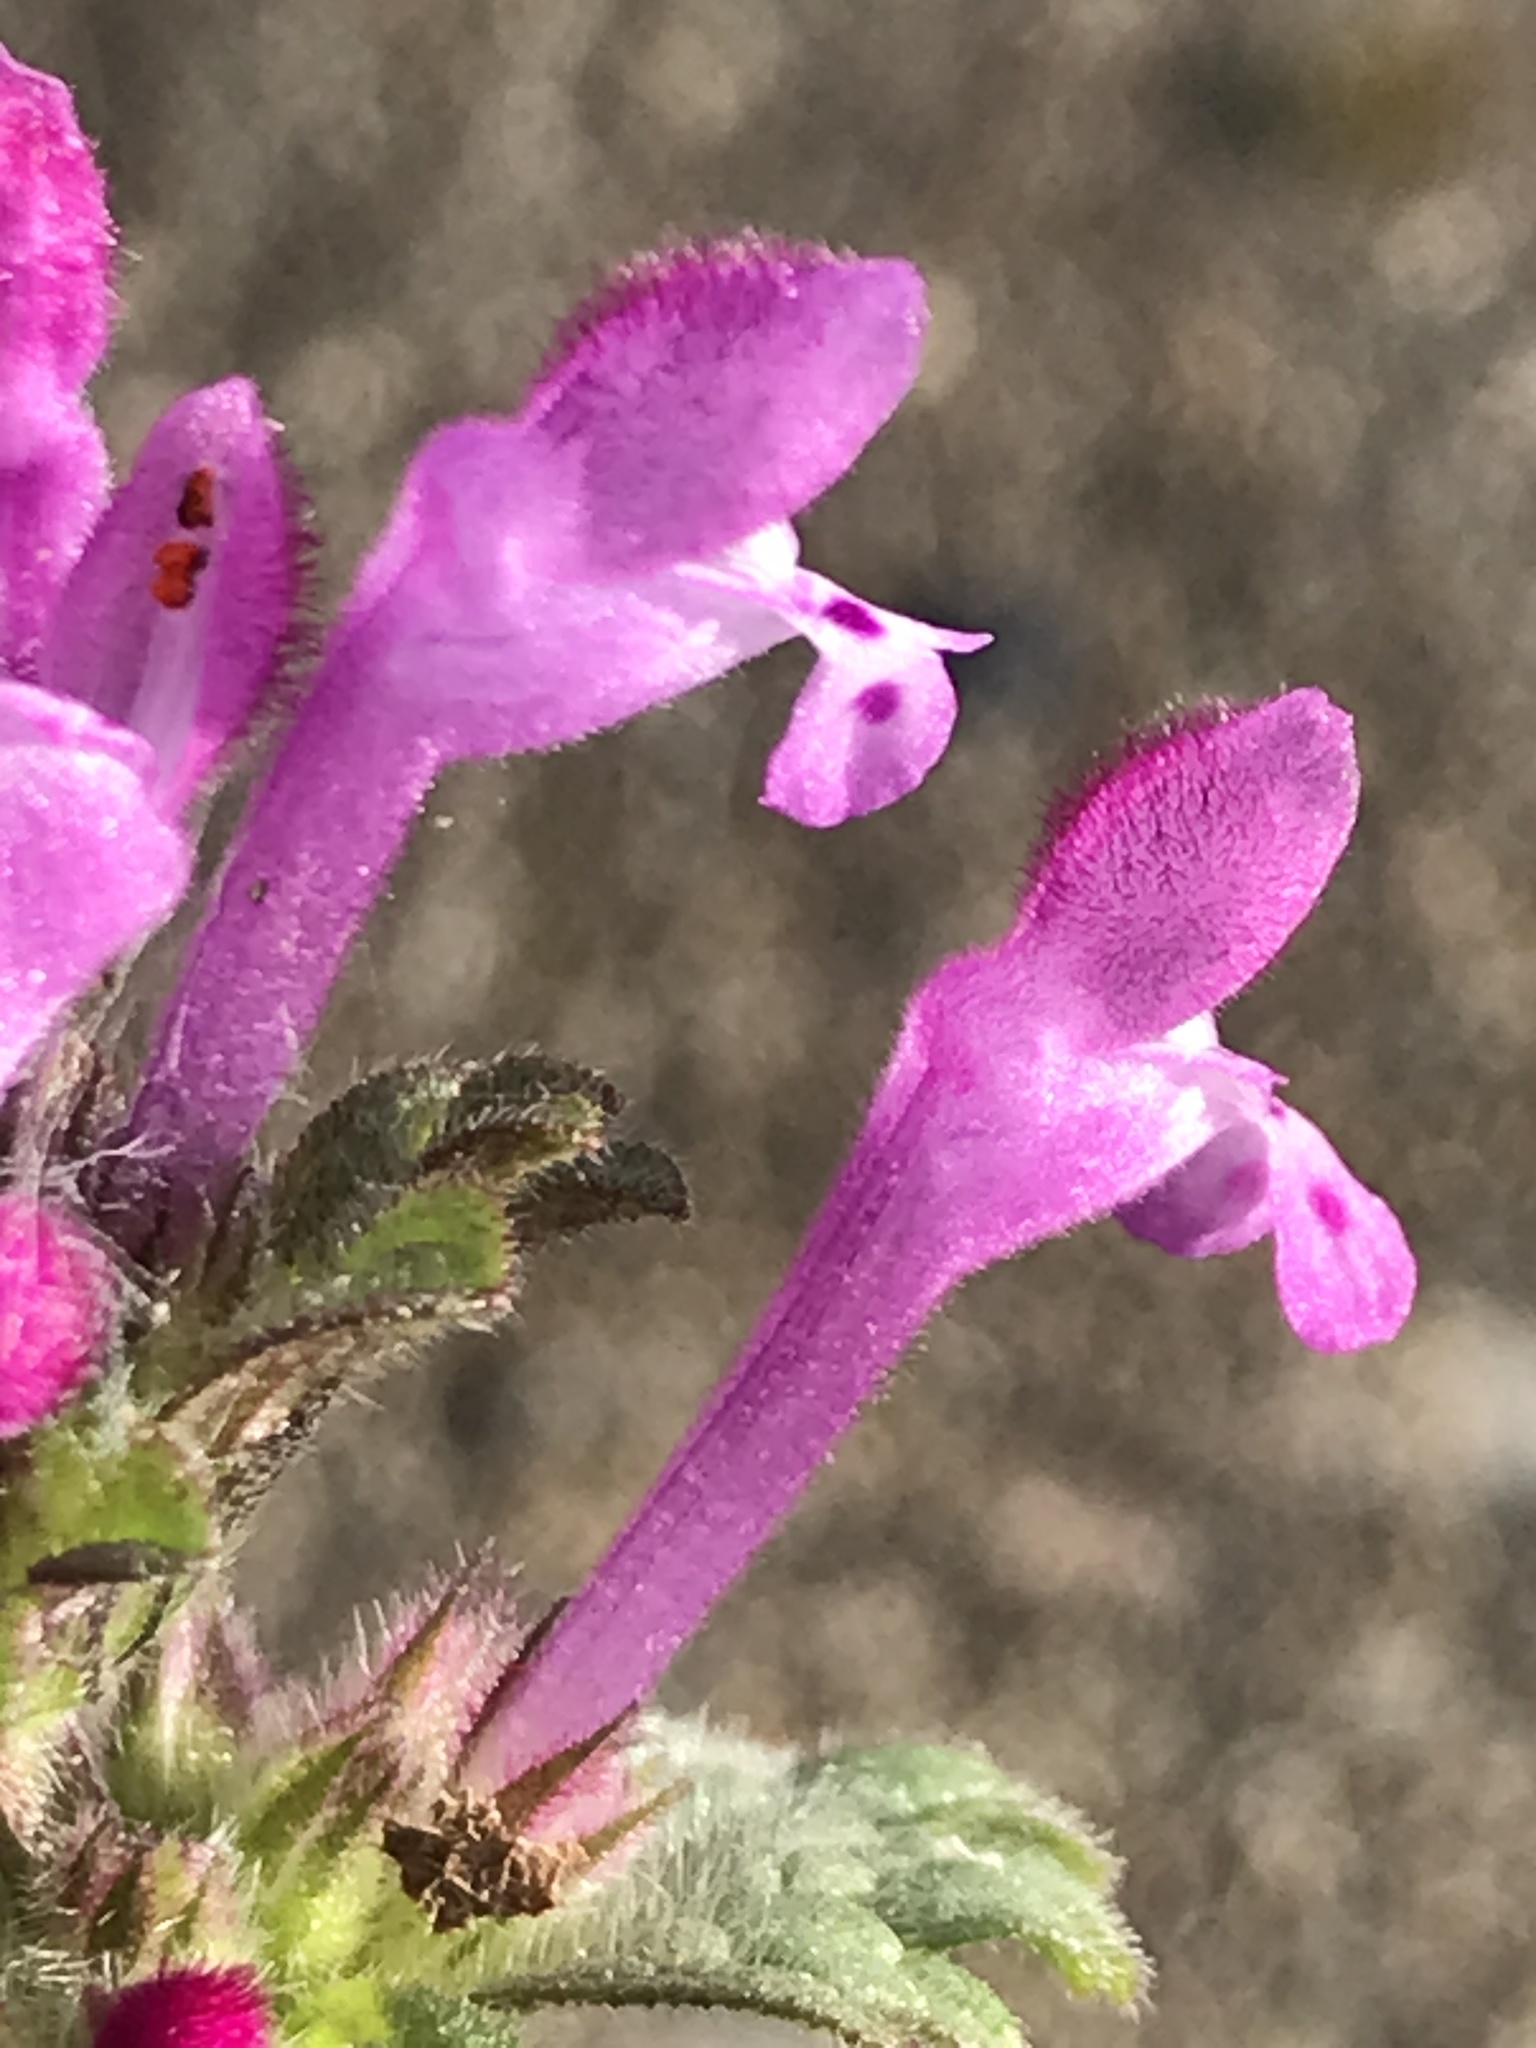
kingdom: Plantae
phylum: Tracheophyta
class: Magnoliopsida
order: Lamiales
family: Lamiaceae
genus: Lamium
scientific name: Lamium amplexicaule
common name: Henbit dead-nettle
